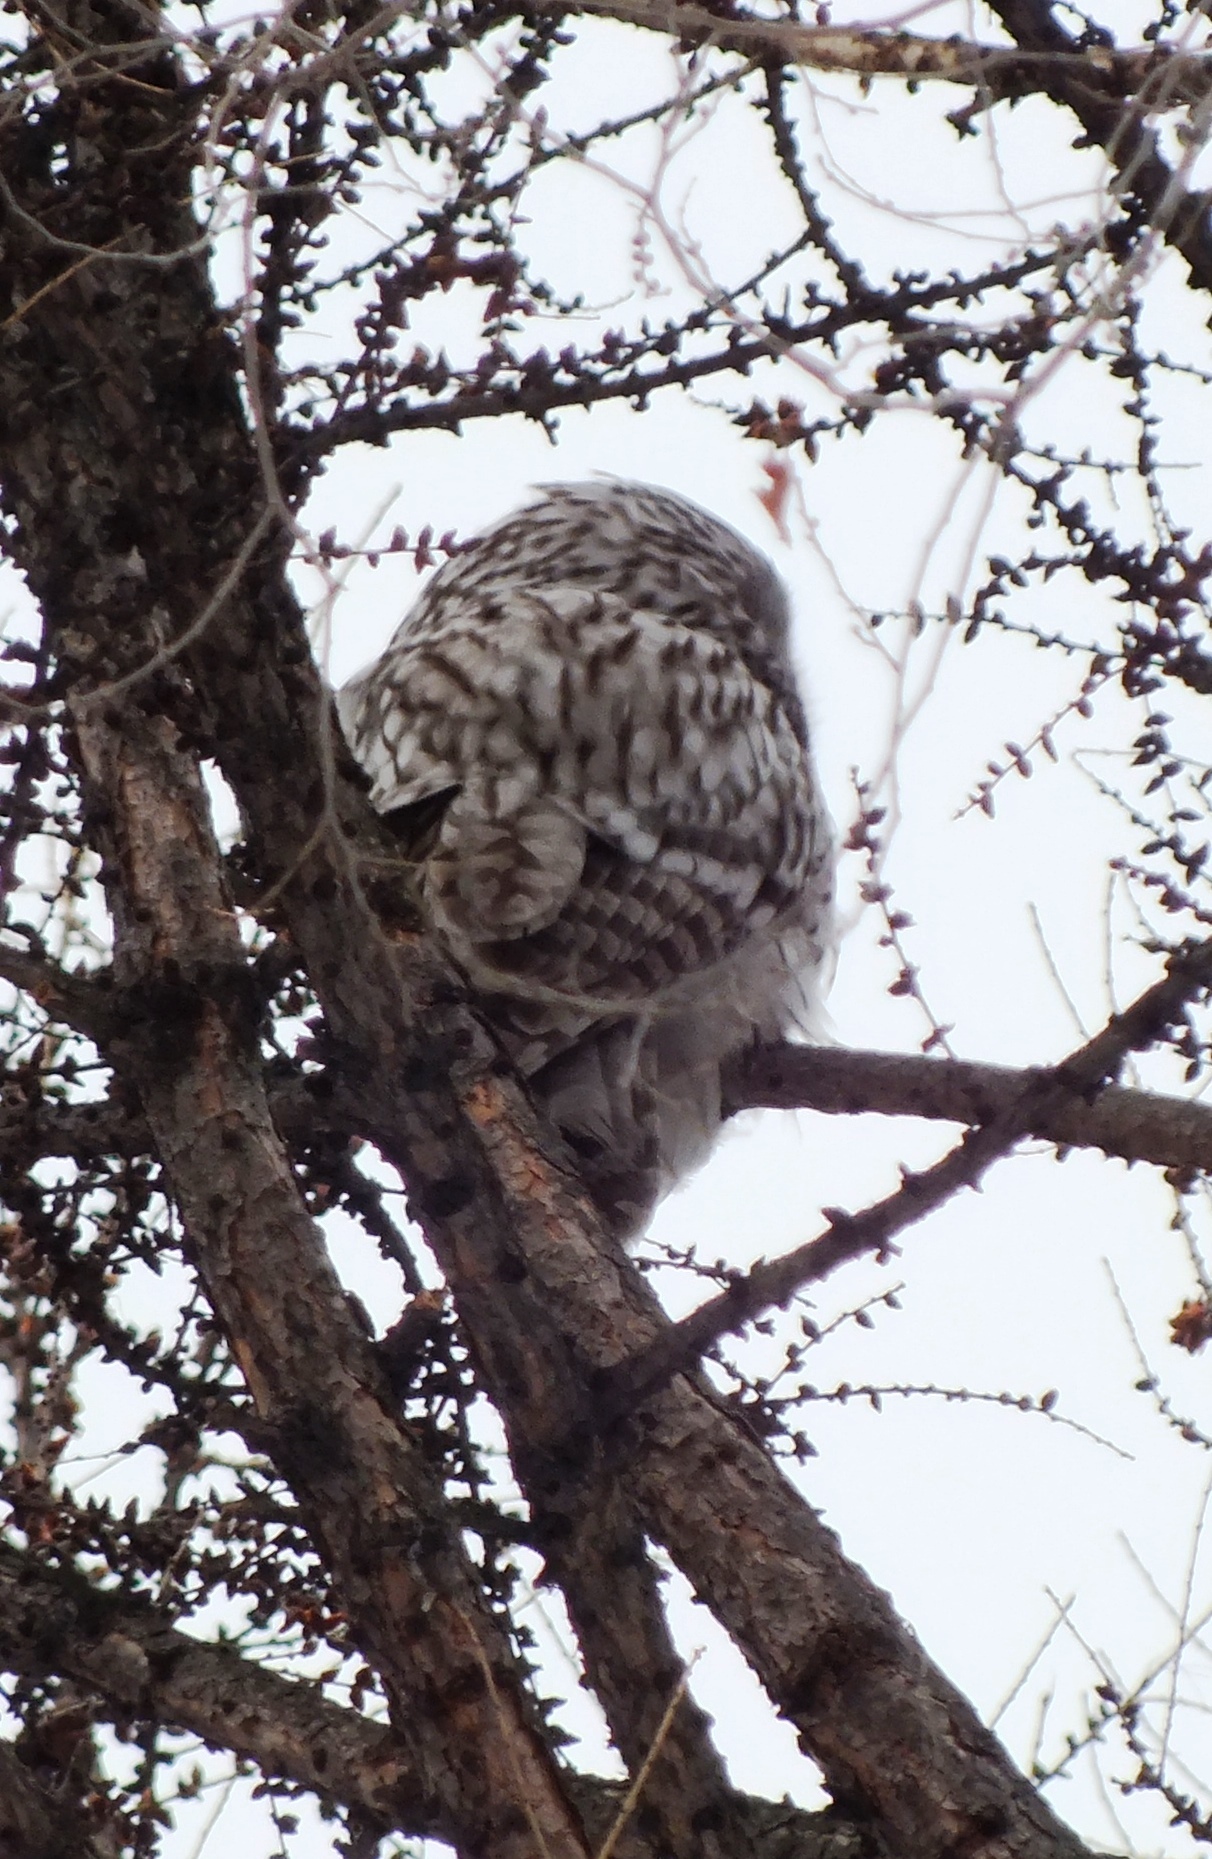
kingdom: Animalia
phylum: Chordata
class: Aves
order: Strigiformes
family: Strigidae
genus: Strix
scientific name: Strix uralensis
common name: Ural owl
